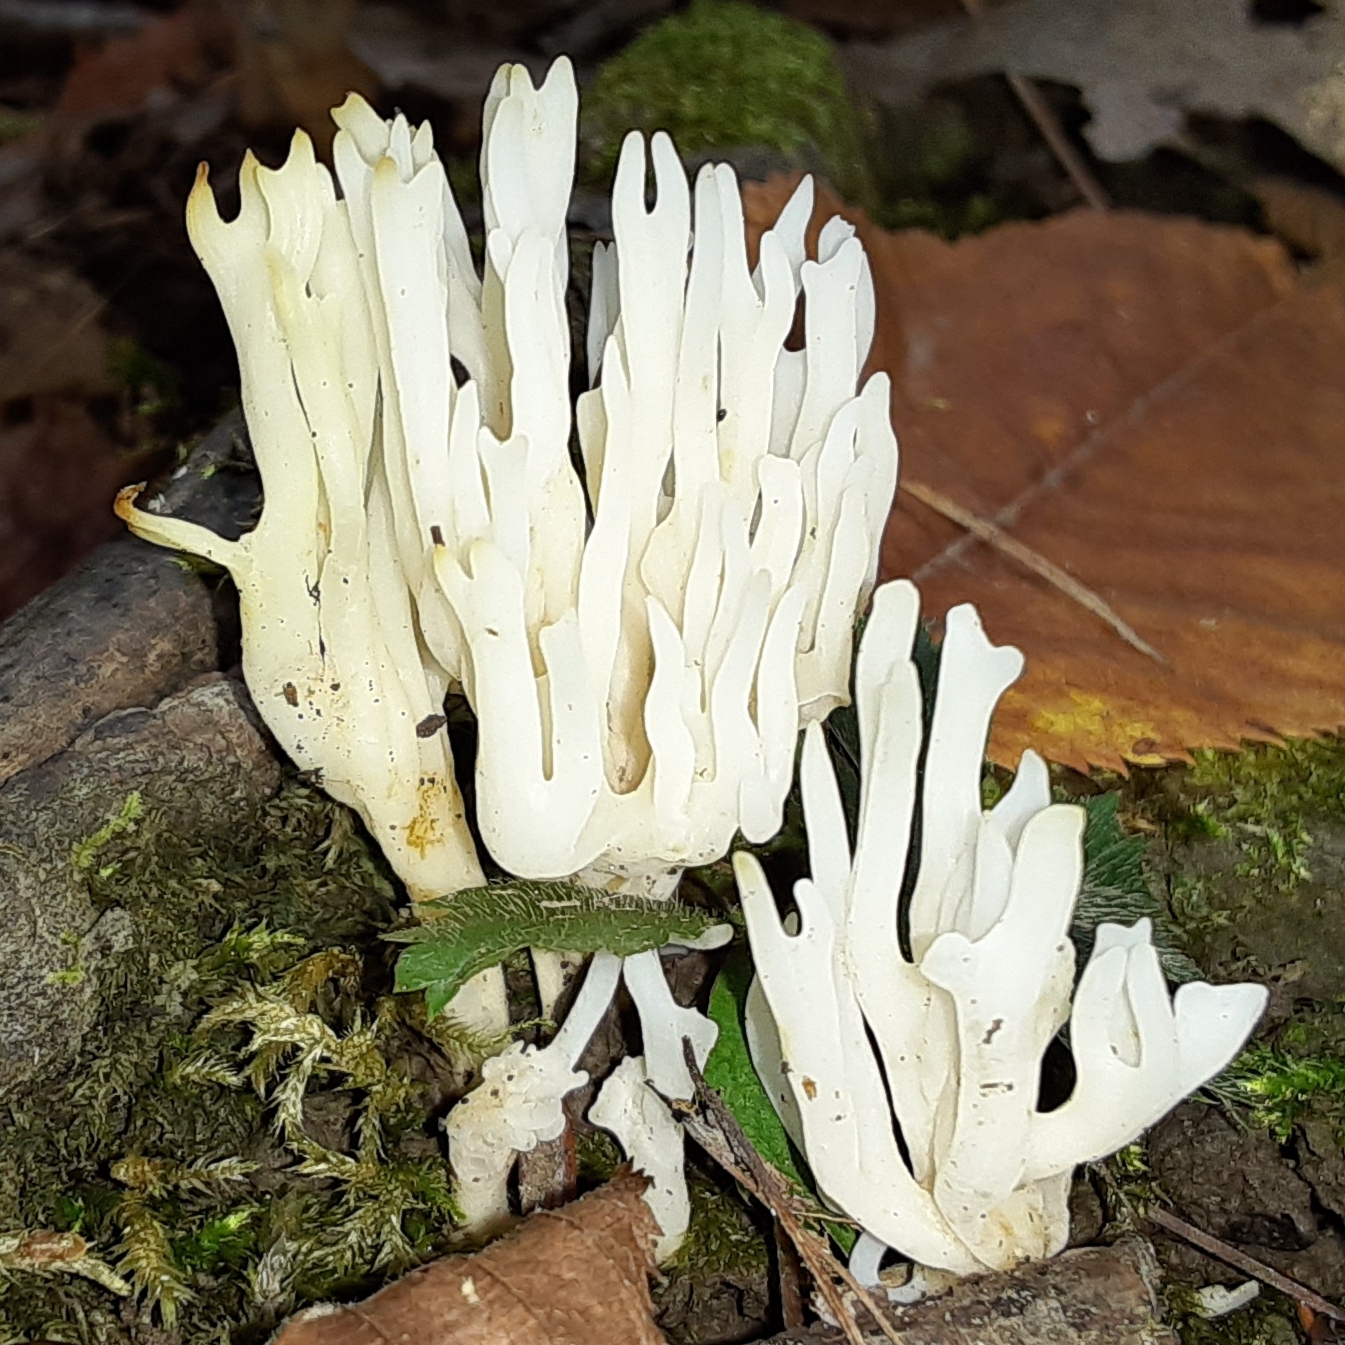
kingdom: Fungi
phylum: Basidiomycota
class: Agaricomycetes
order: Agaricales
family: Clavariaceae
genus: Ramariopsis
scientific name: Ramariopsis kunzei
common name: Ivory coral
